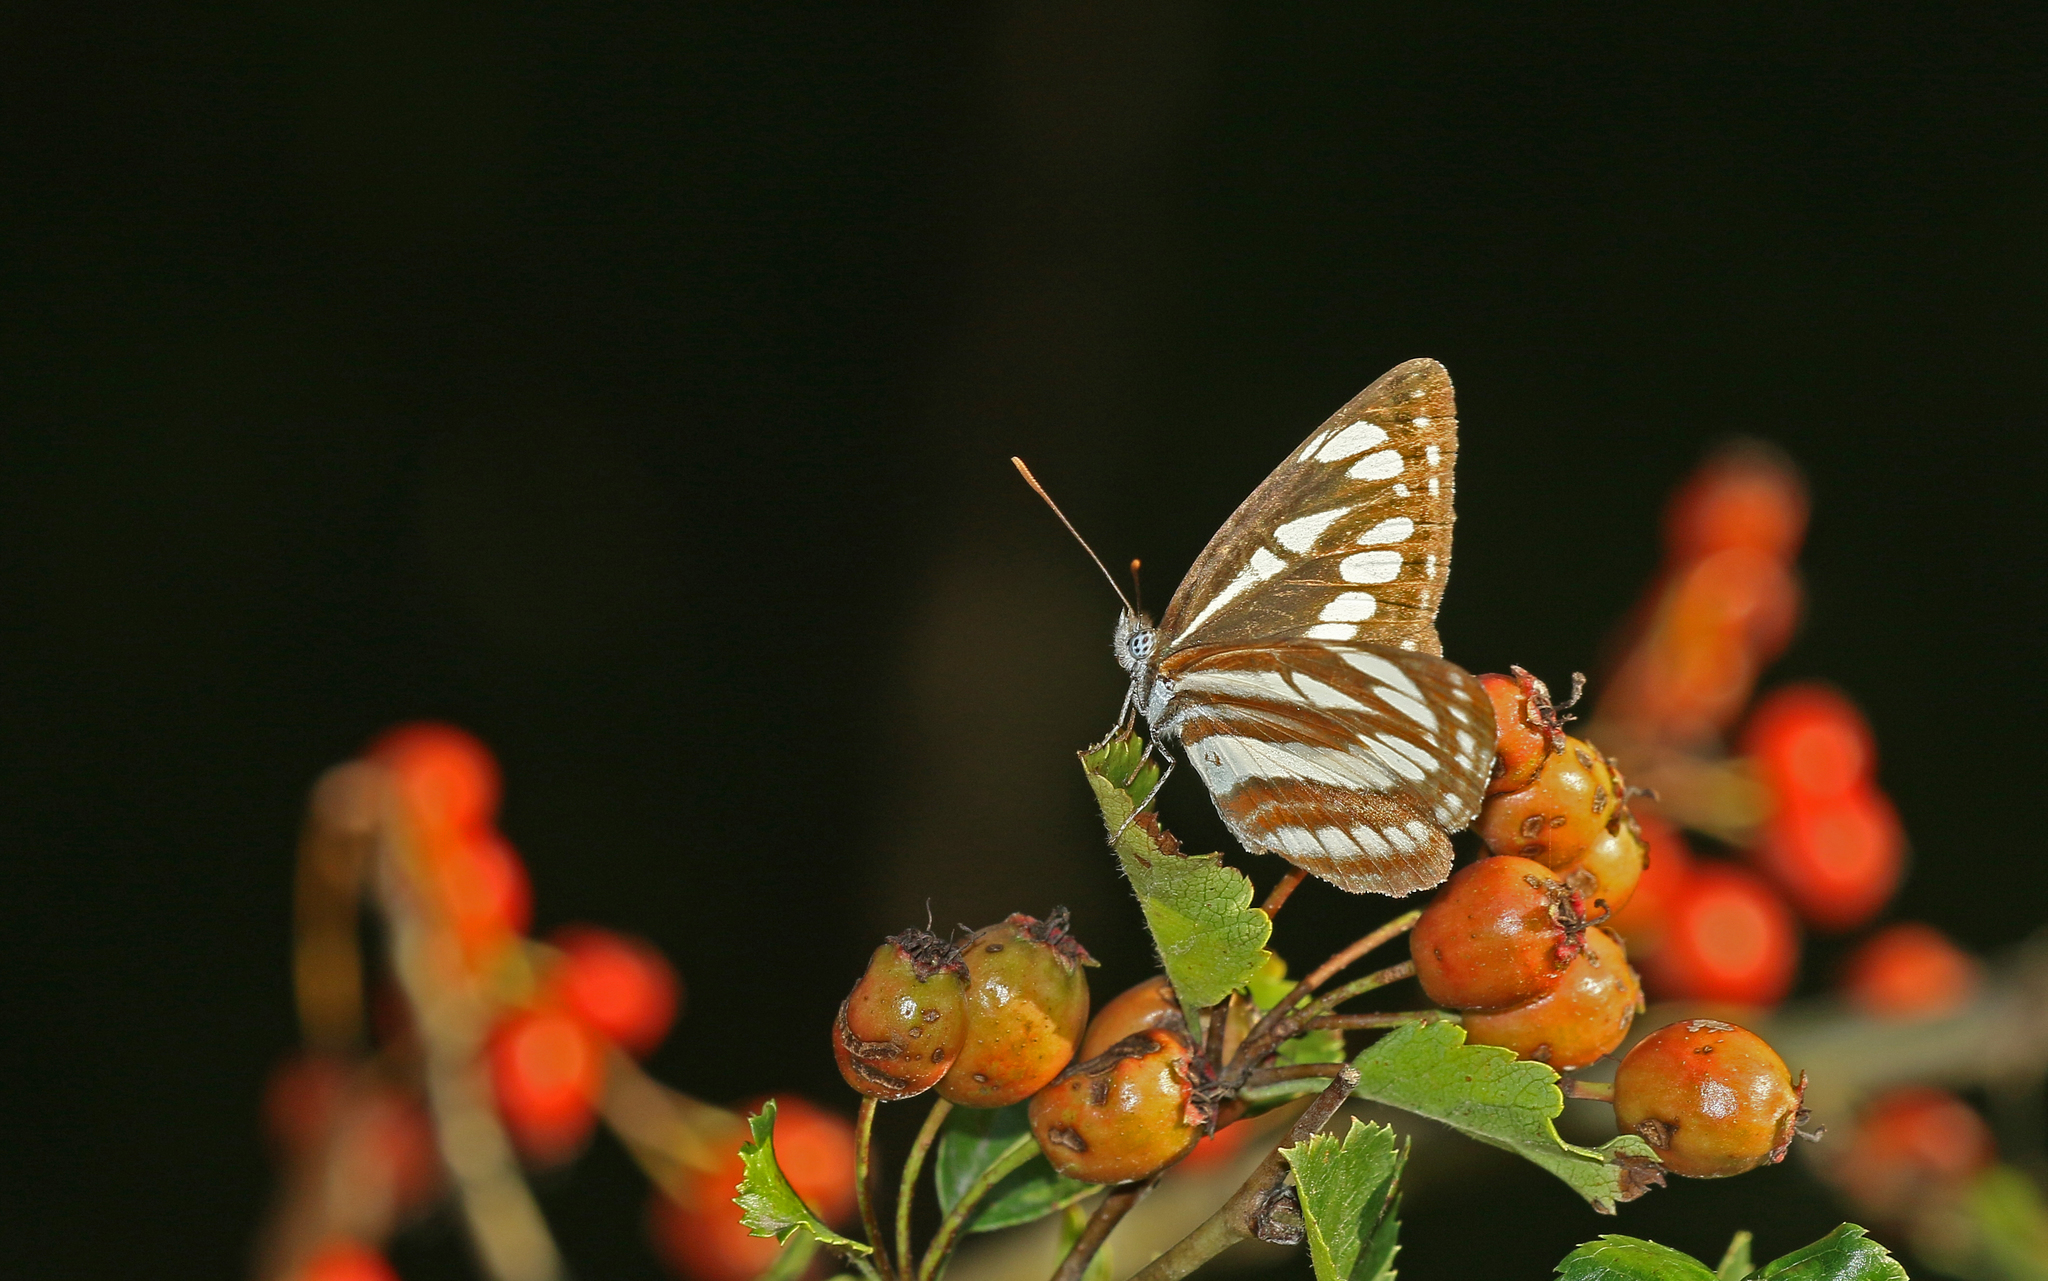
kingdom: Animalia
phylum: Arthropoda
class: Insecta
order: Lepidoptera
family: Nymphalidae
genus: Neptis
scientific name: Neptis sappho
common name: Common glider
